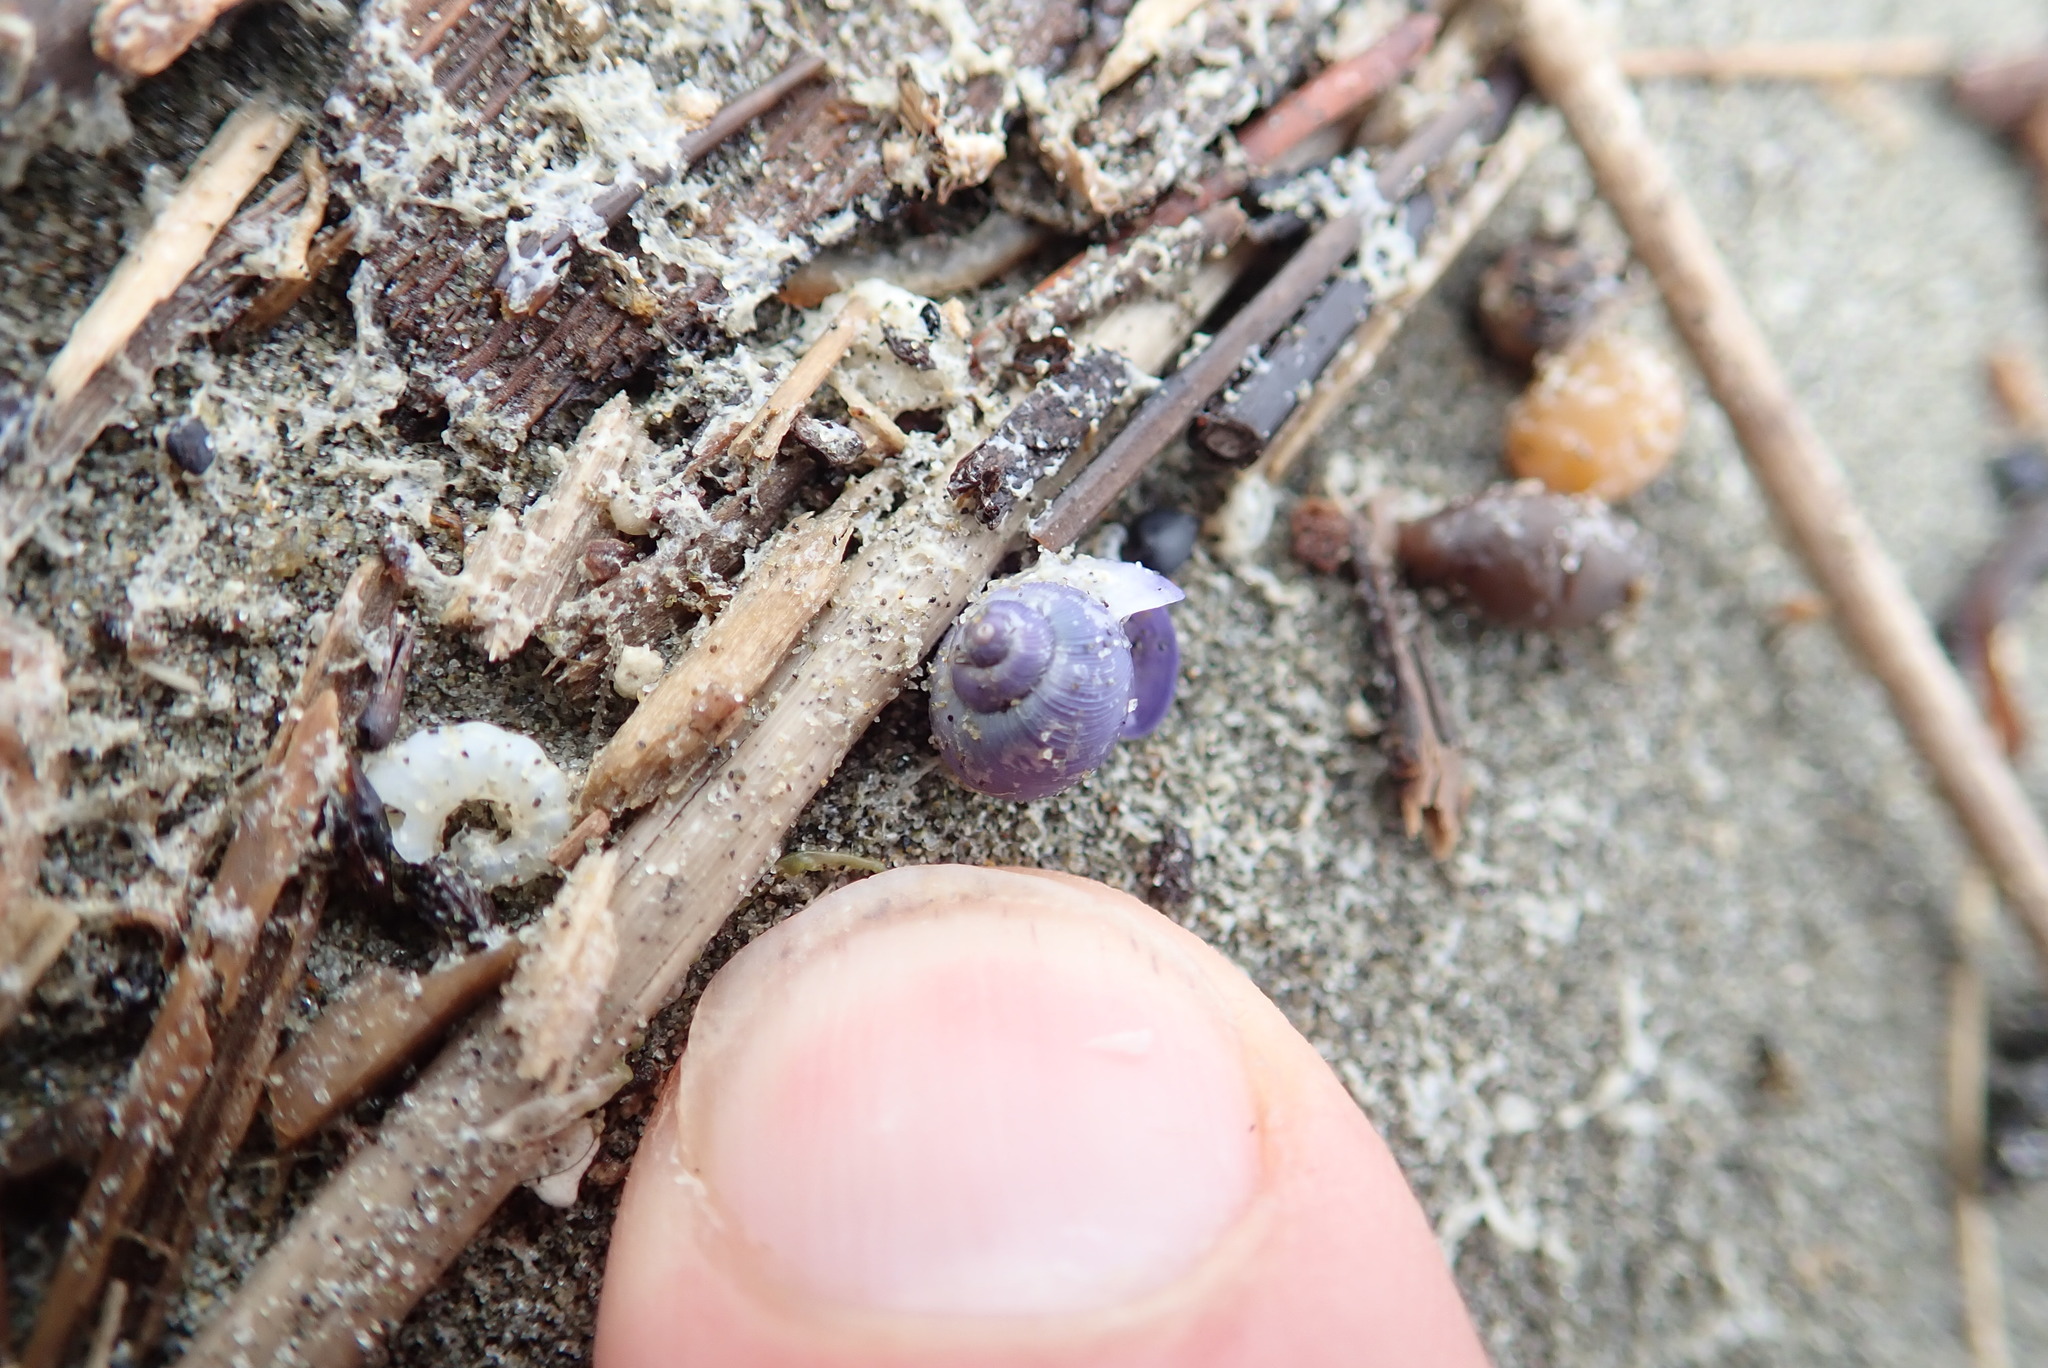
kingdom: Animalia
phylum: Mollusca
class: Gastropoda
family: Epitoniidae
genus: Janthina
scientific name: Janthina exigua
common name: Dwarf janthina
